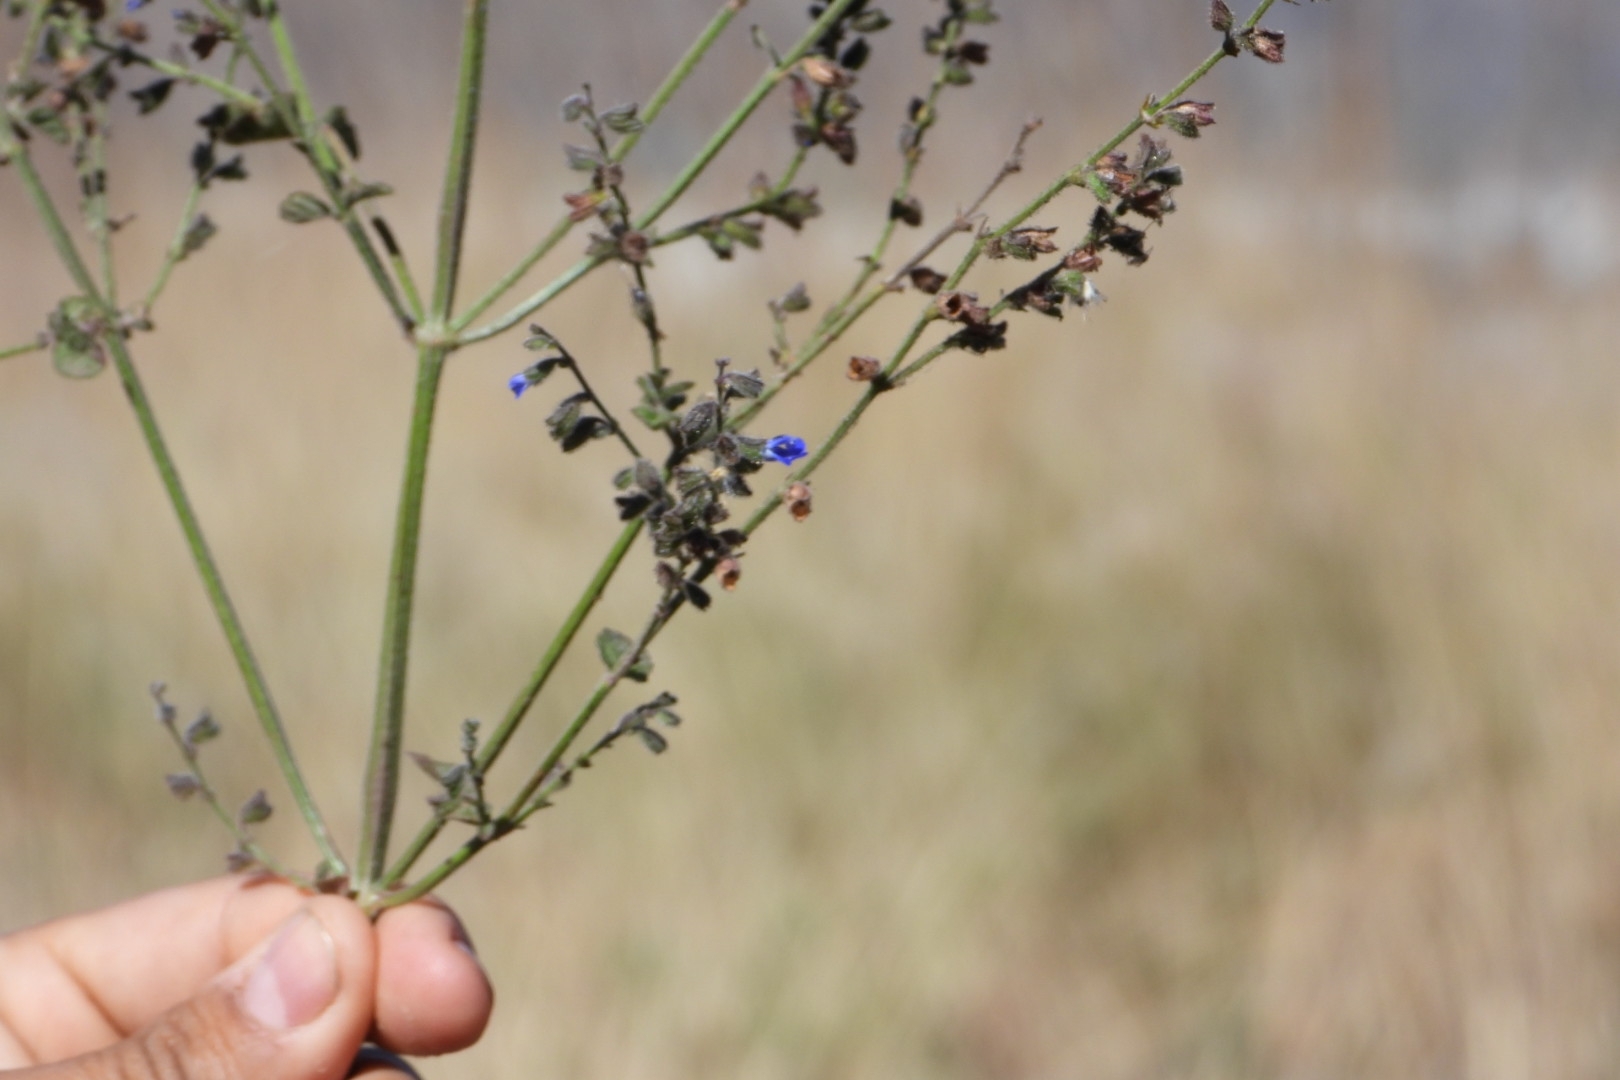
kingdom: Plantae
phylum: Tracheophyta
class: Magnoliopsida
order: Lamiales
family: Lamiaceae
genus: Salvia
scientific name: Salvia misella
